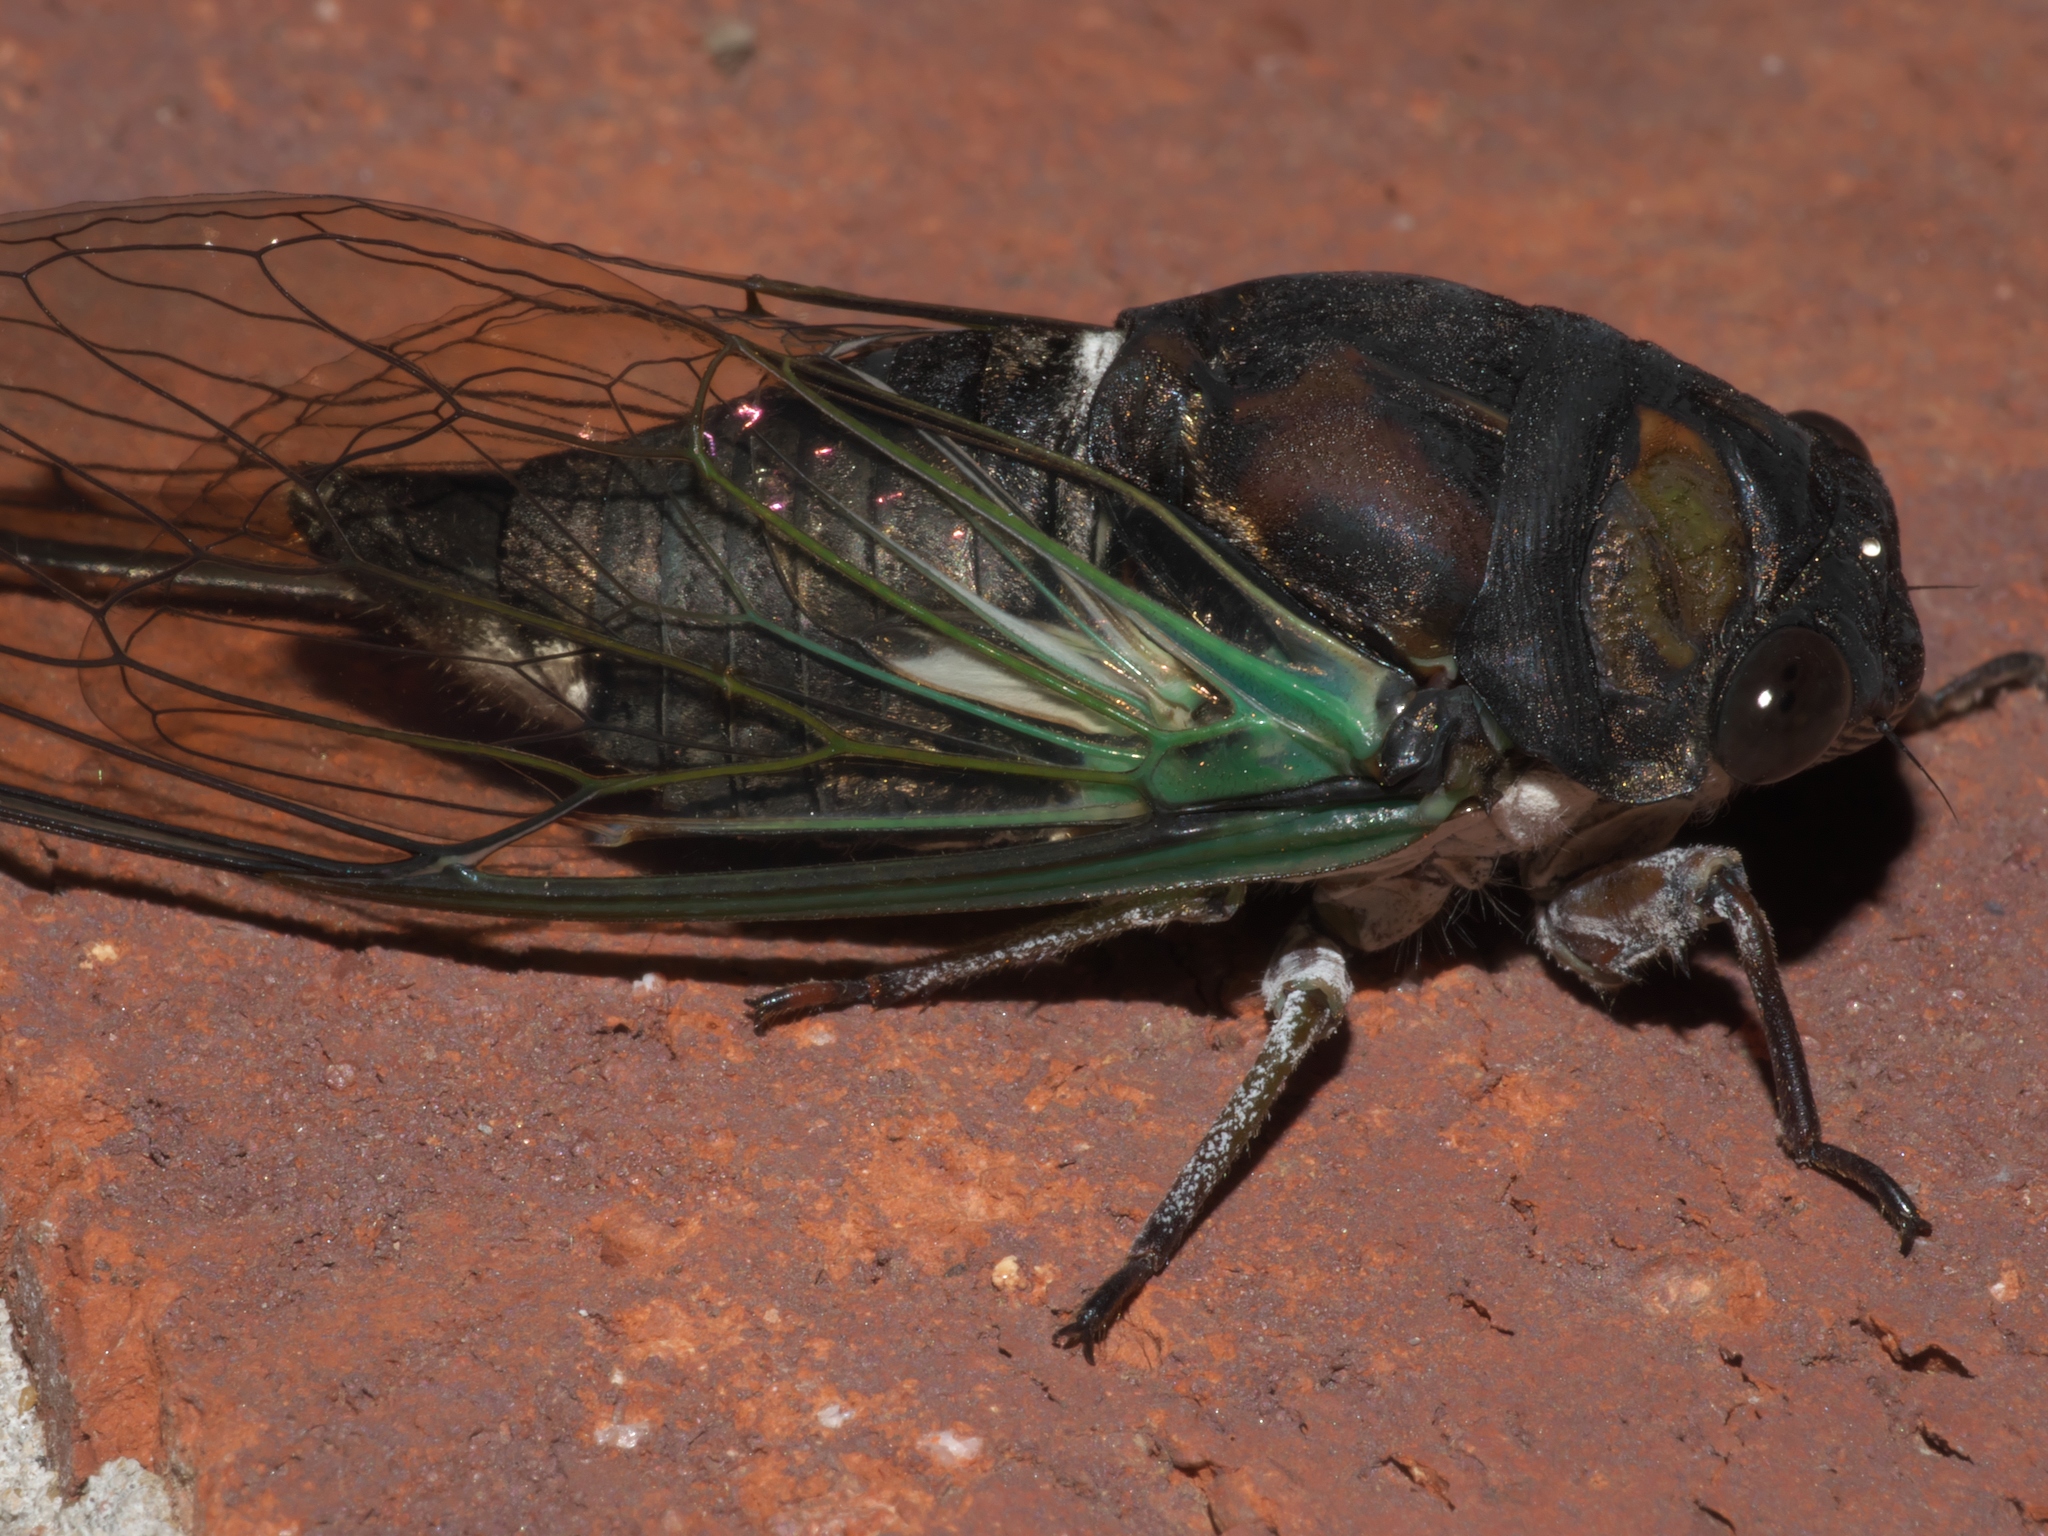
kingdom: Animalia
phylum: Arthropoda
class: Insecta
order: Hemiptera
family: Cicadidae
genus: Neotibicen
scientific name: Neotibicen lyricen
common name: Lyric cicada
